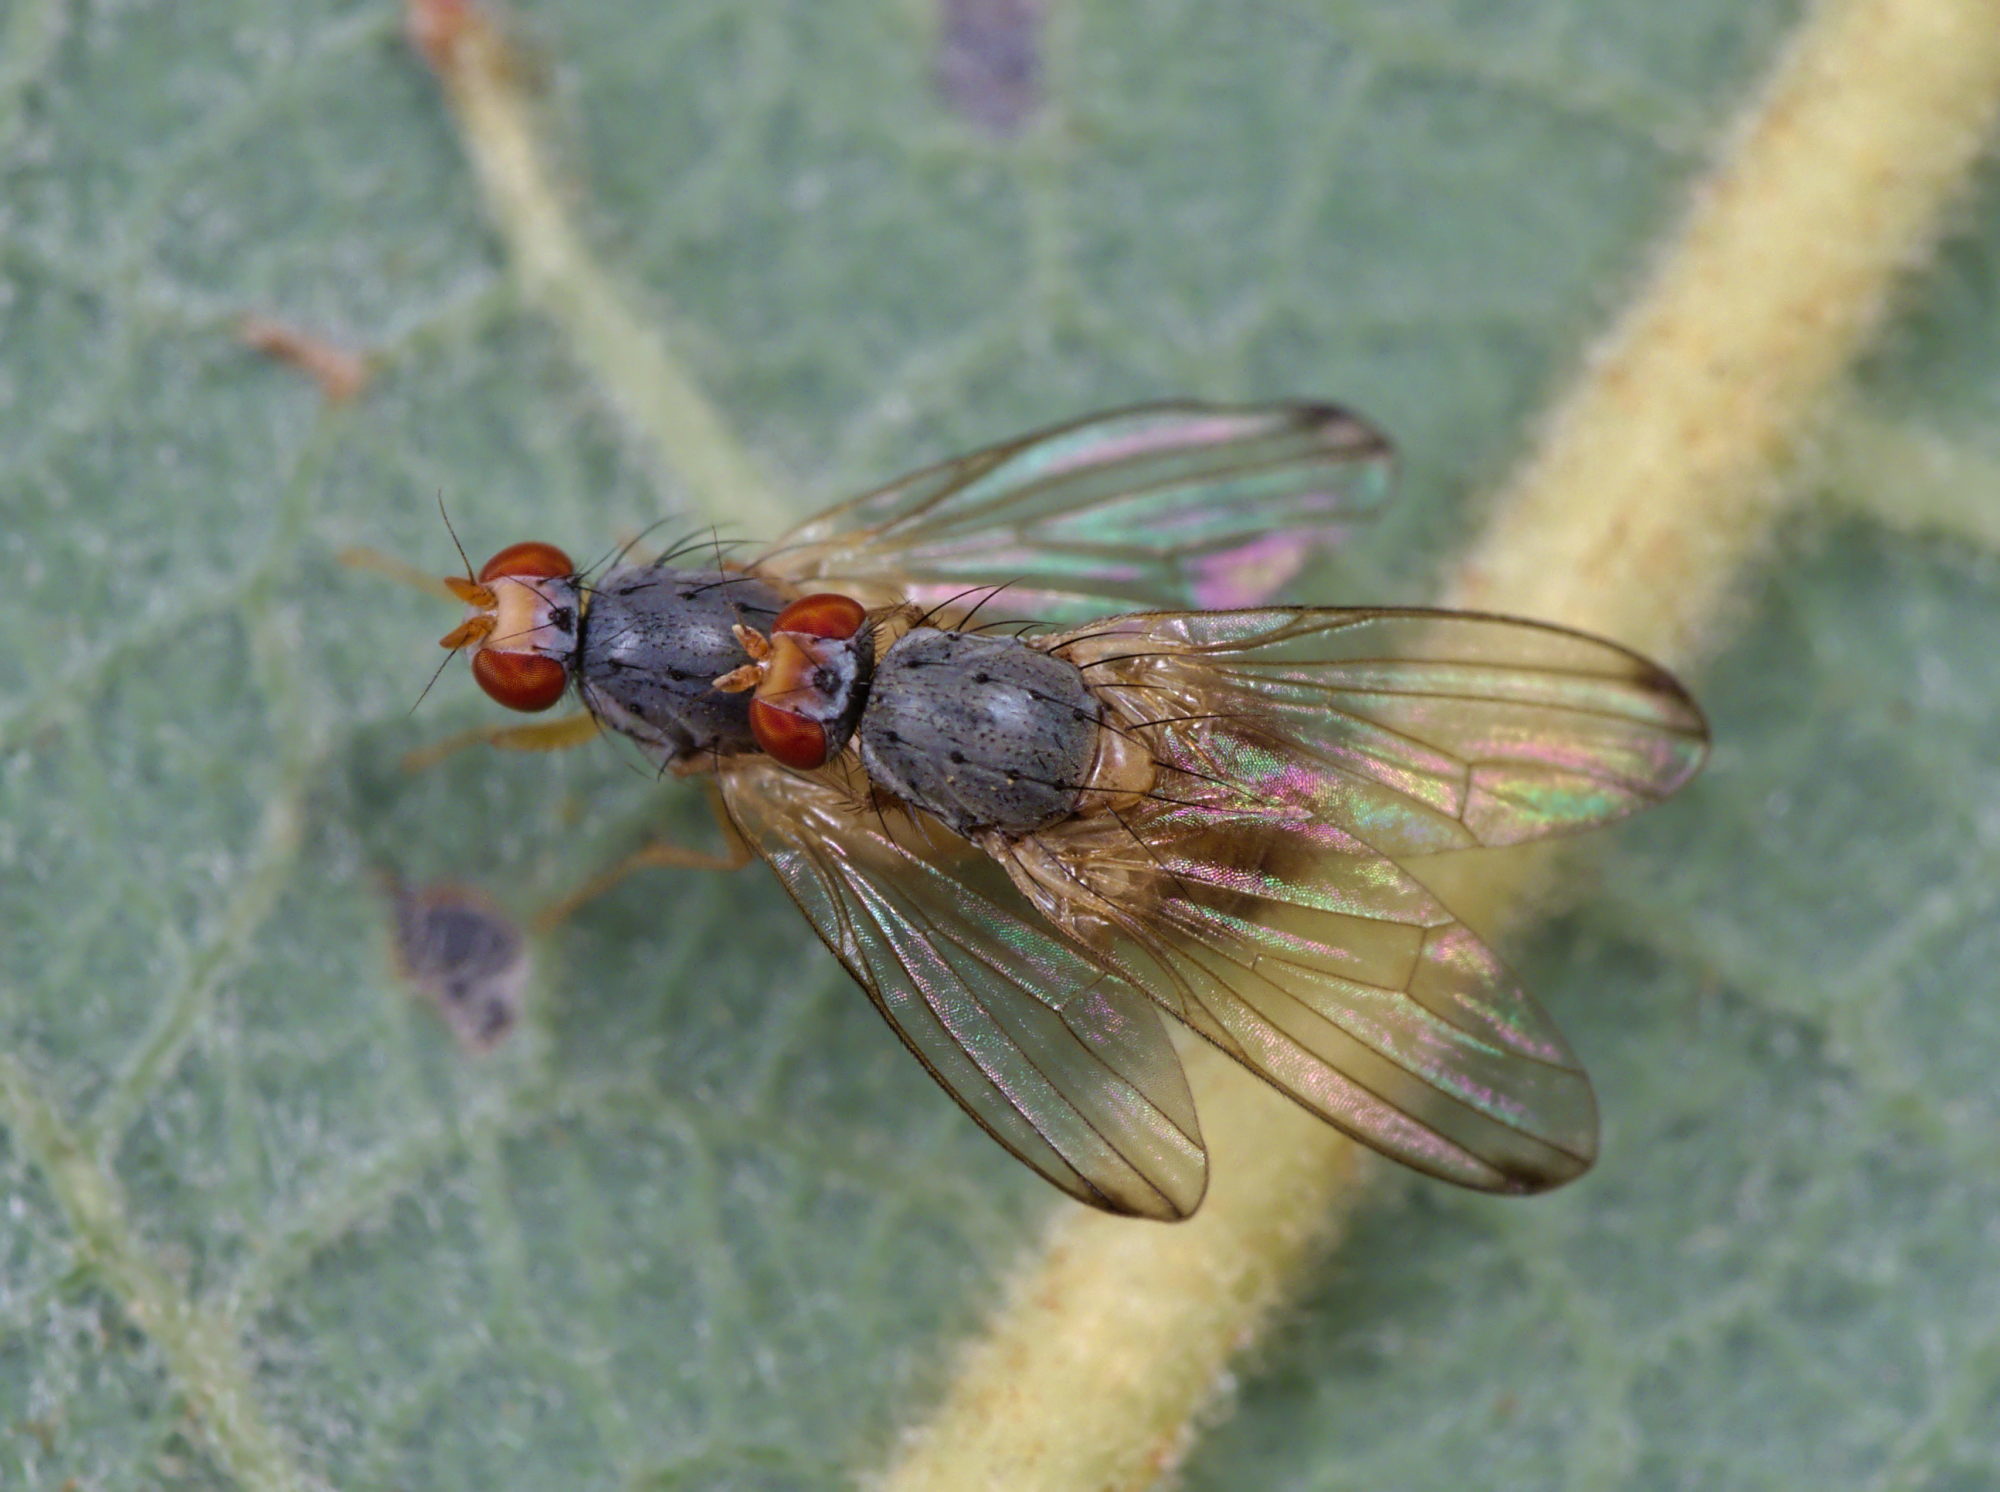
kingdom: Animalia
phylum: Arthropoda
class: Insecta
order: Diptera
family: Pallopteridae
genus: Palloptera
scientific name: Palloptera
